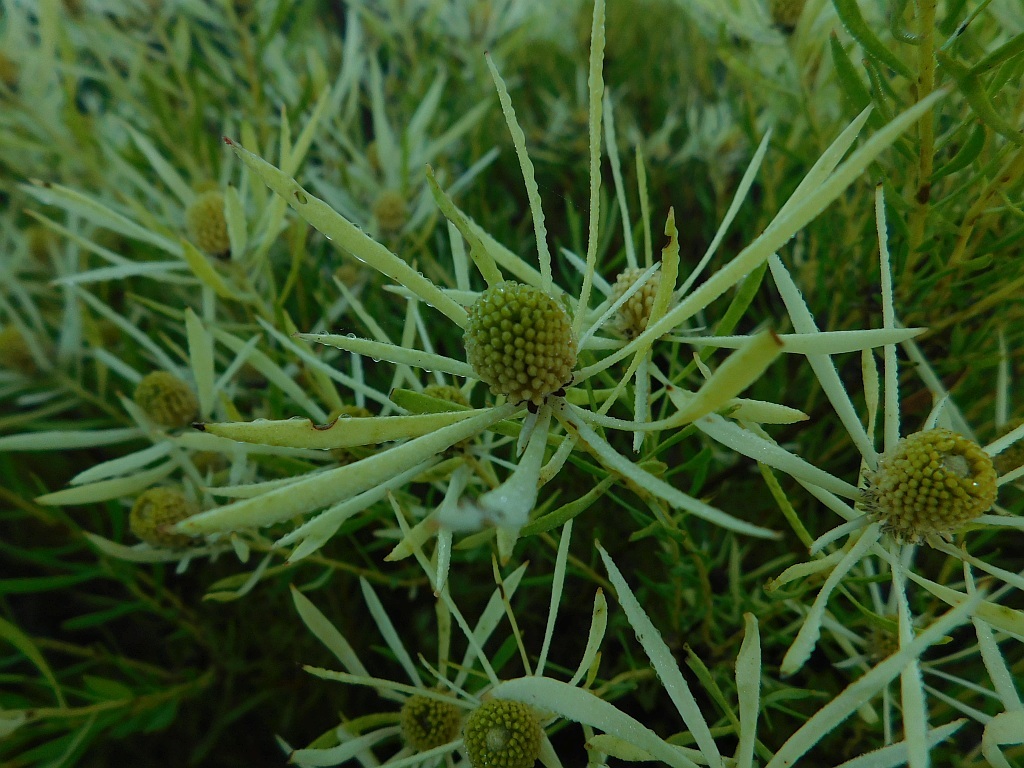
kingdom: Plantae
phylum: Tracheophyta
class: Magnoliopsida
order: Proteales
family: Proteaceae
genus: Leucadendron
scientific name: Leucadendron salignum
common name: Common sunshine conebush
